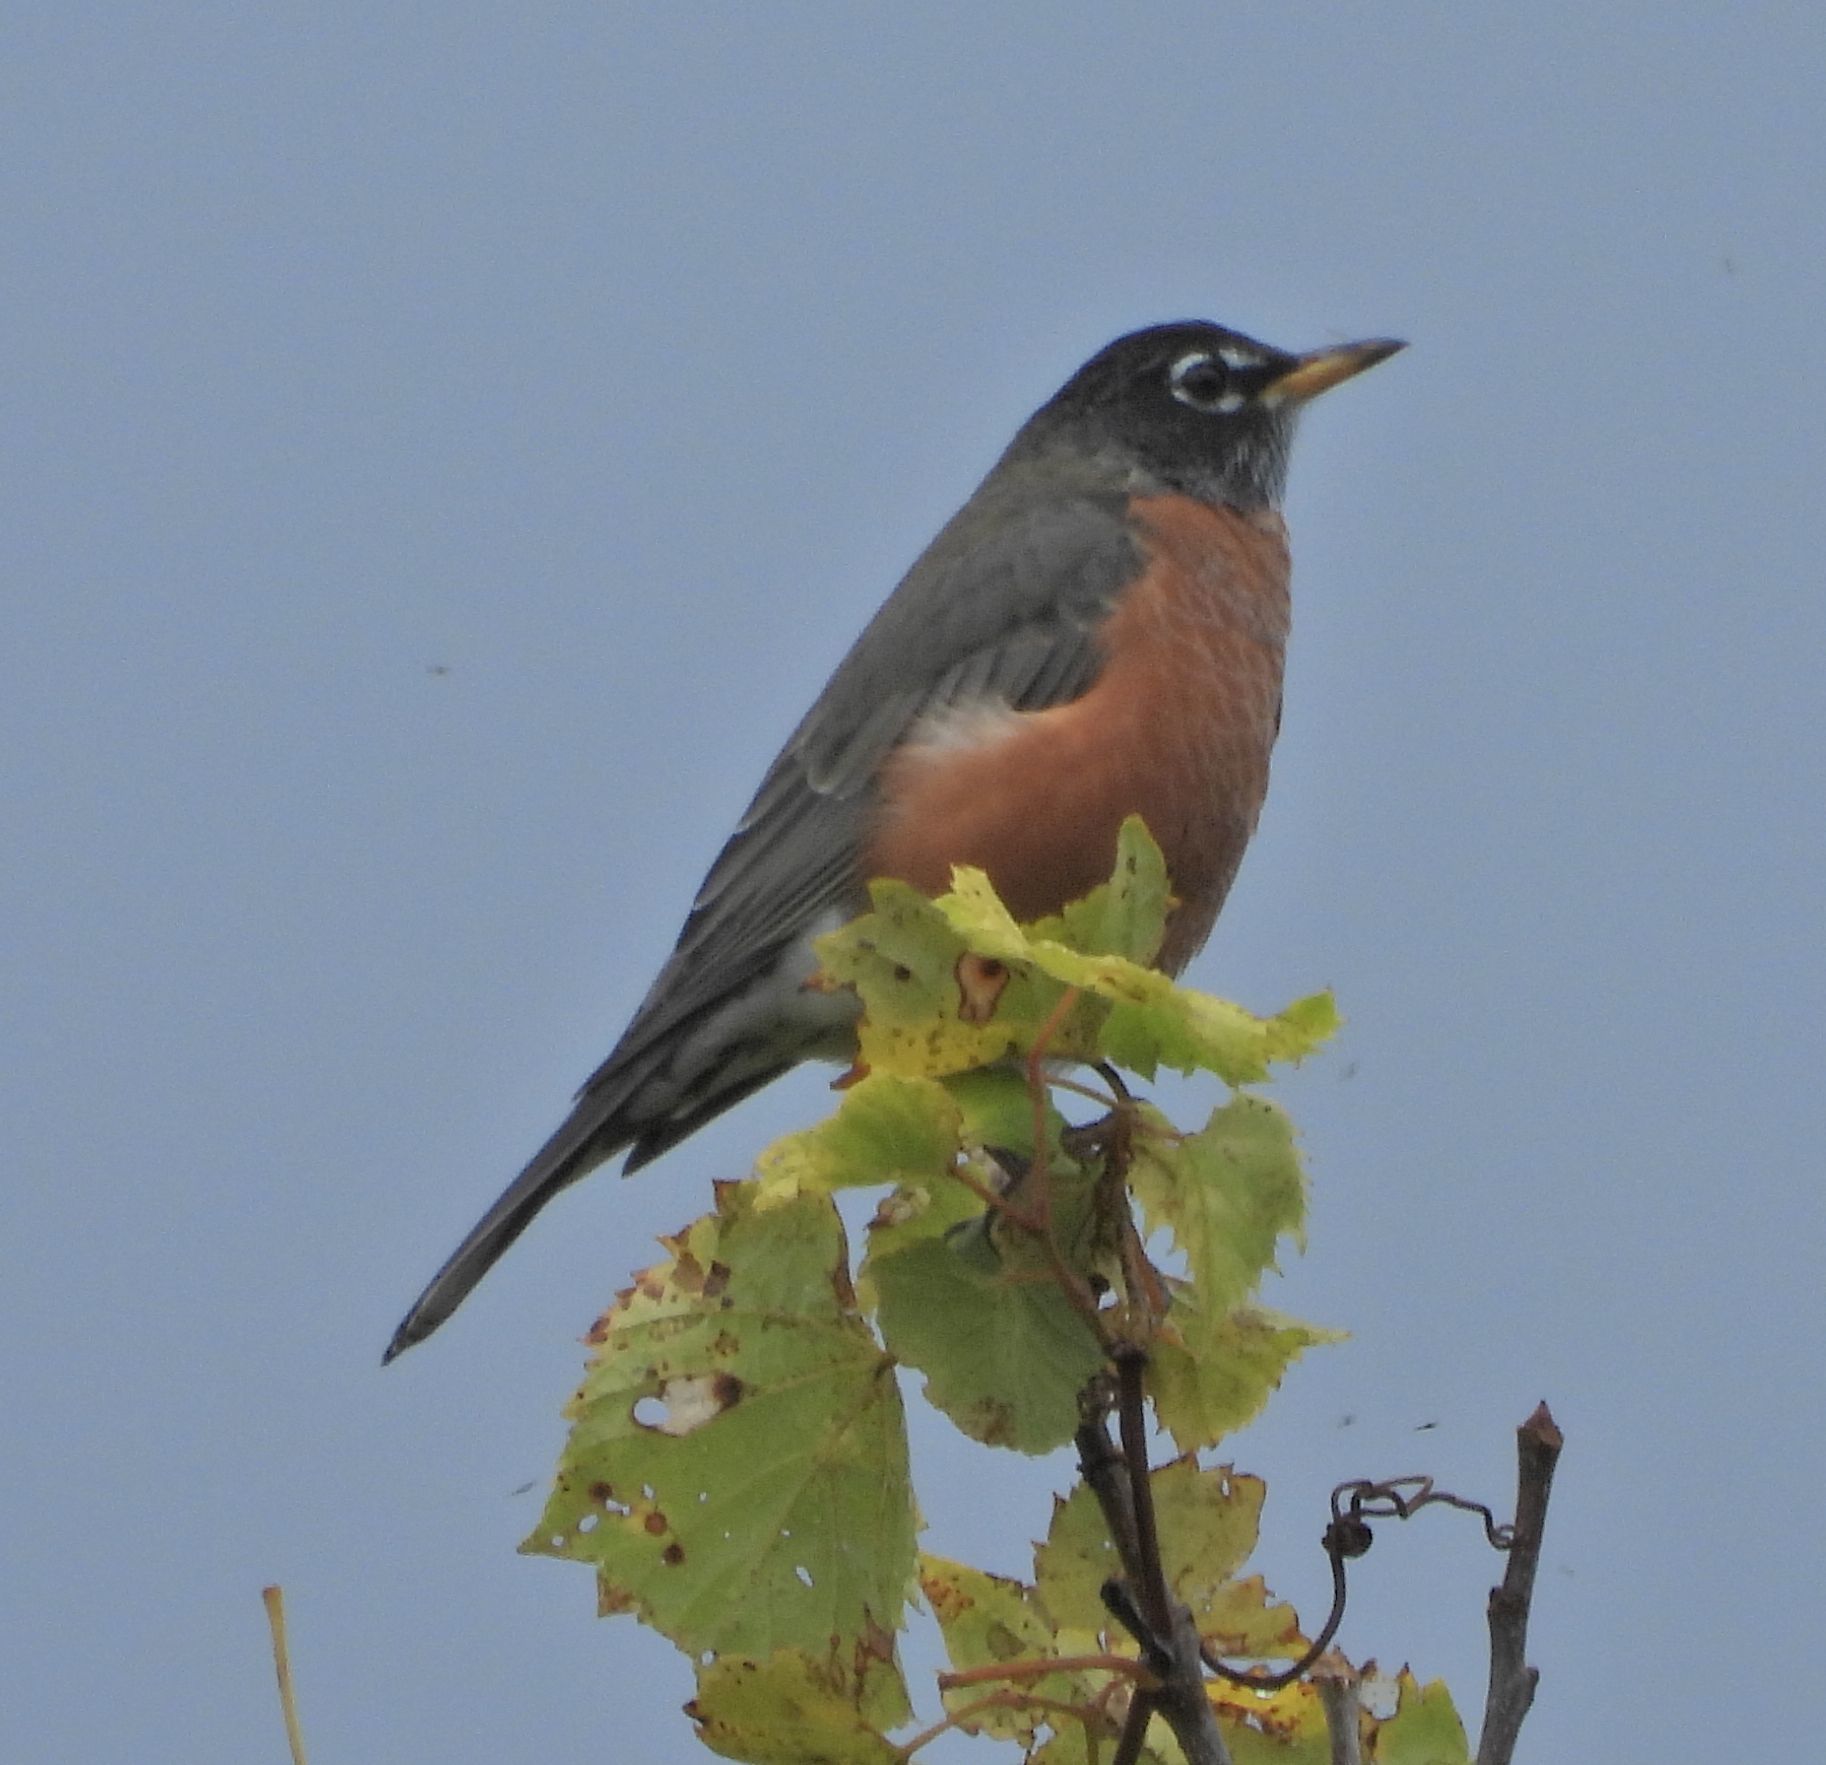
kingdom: Animalia
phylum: Chordata
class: Aves
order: Passeriformes
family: Turdidae
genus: Turdus
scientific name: Turdus migratorius
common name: American robin
